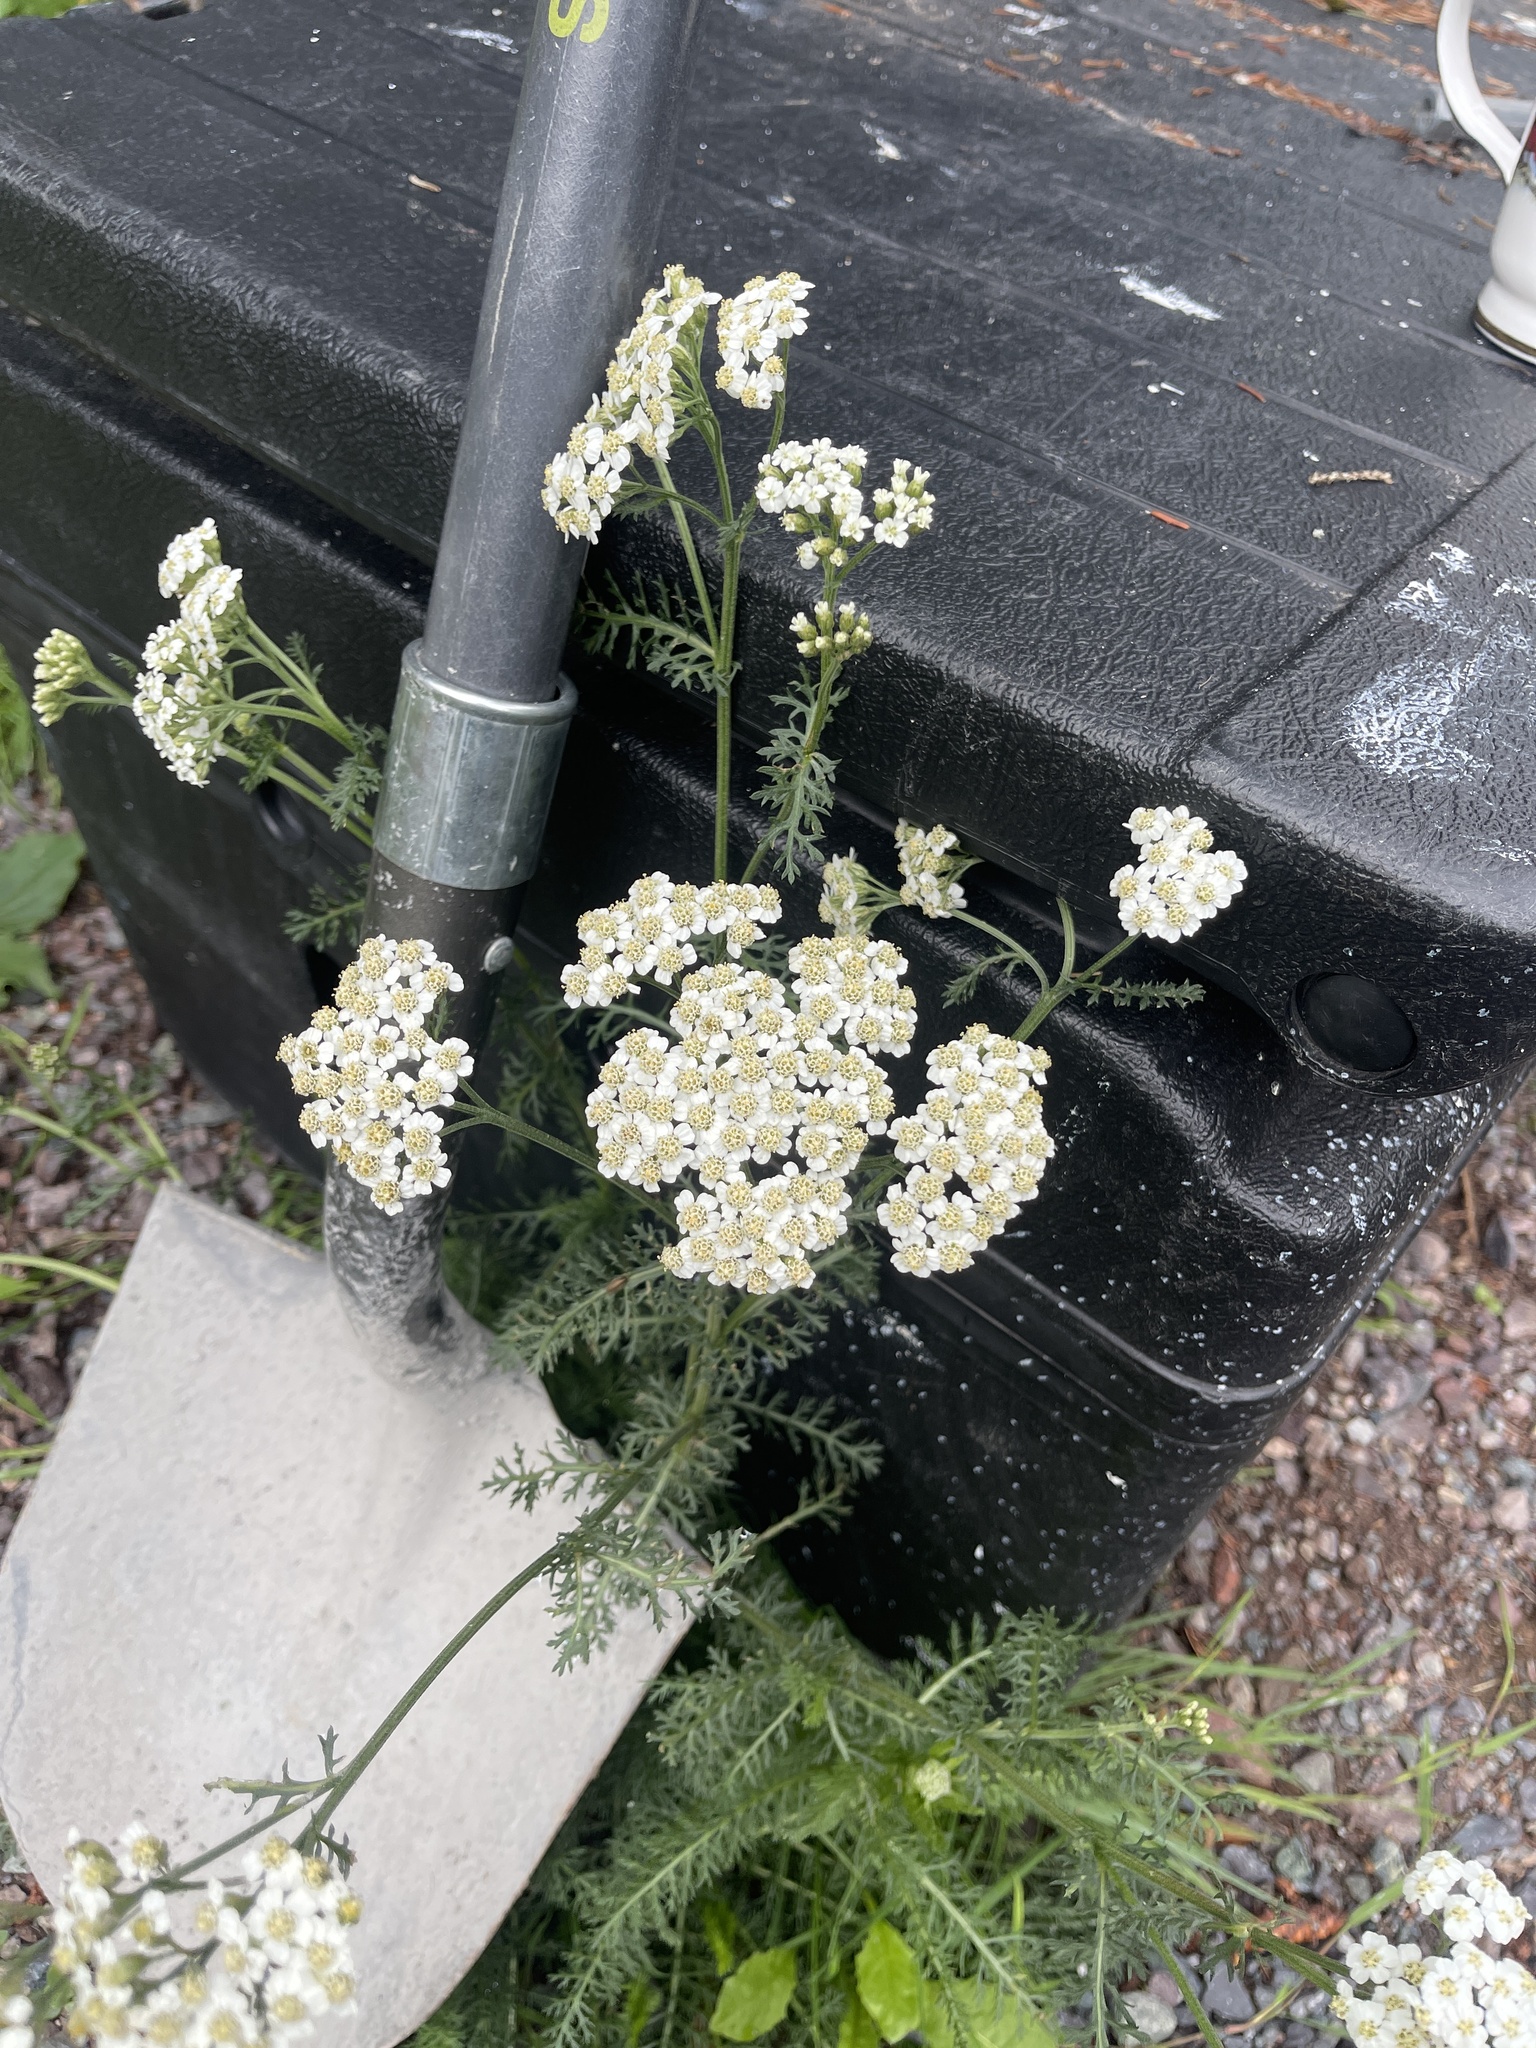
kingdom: Plantae
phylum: Tracheophyta
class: Magnoliopsida
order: Asterales
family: Asteraceae
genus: Achillea
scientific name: Achillea millefolium
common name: Yarrow
